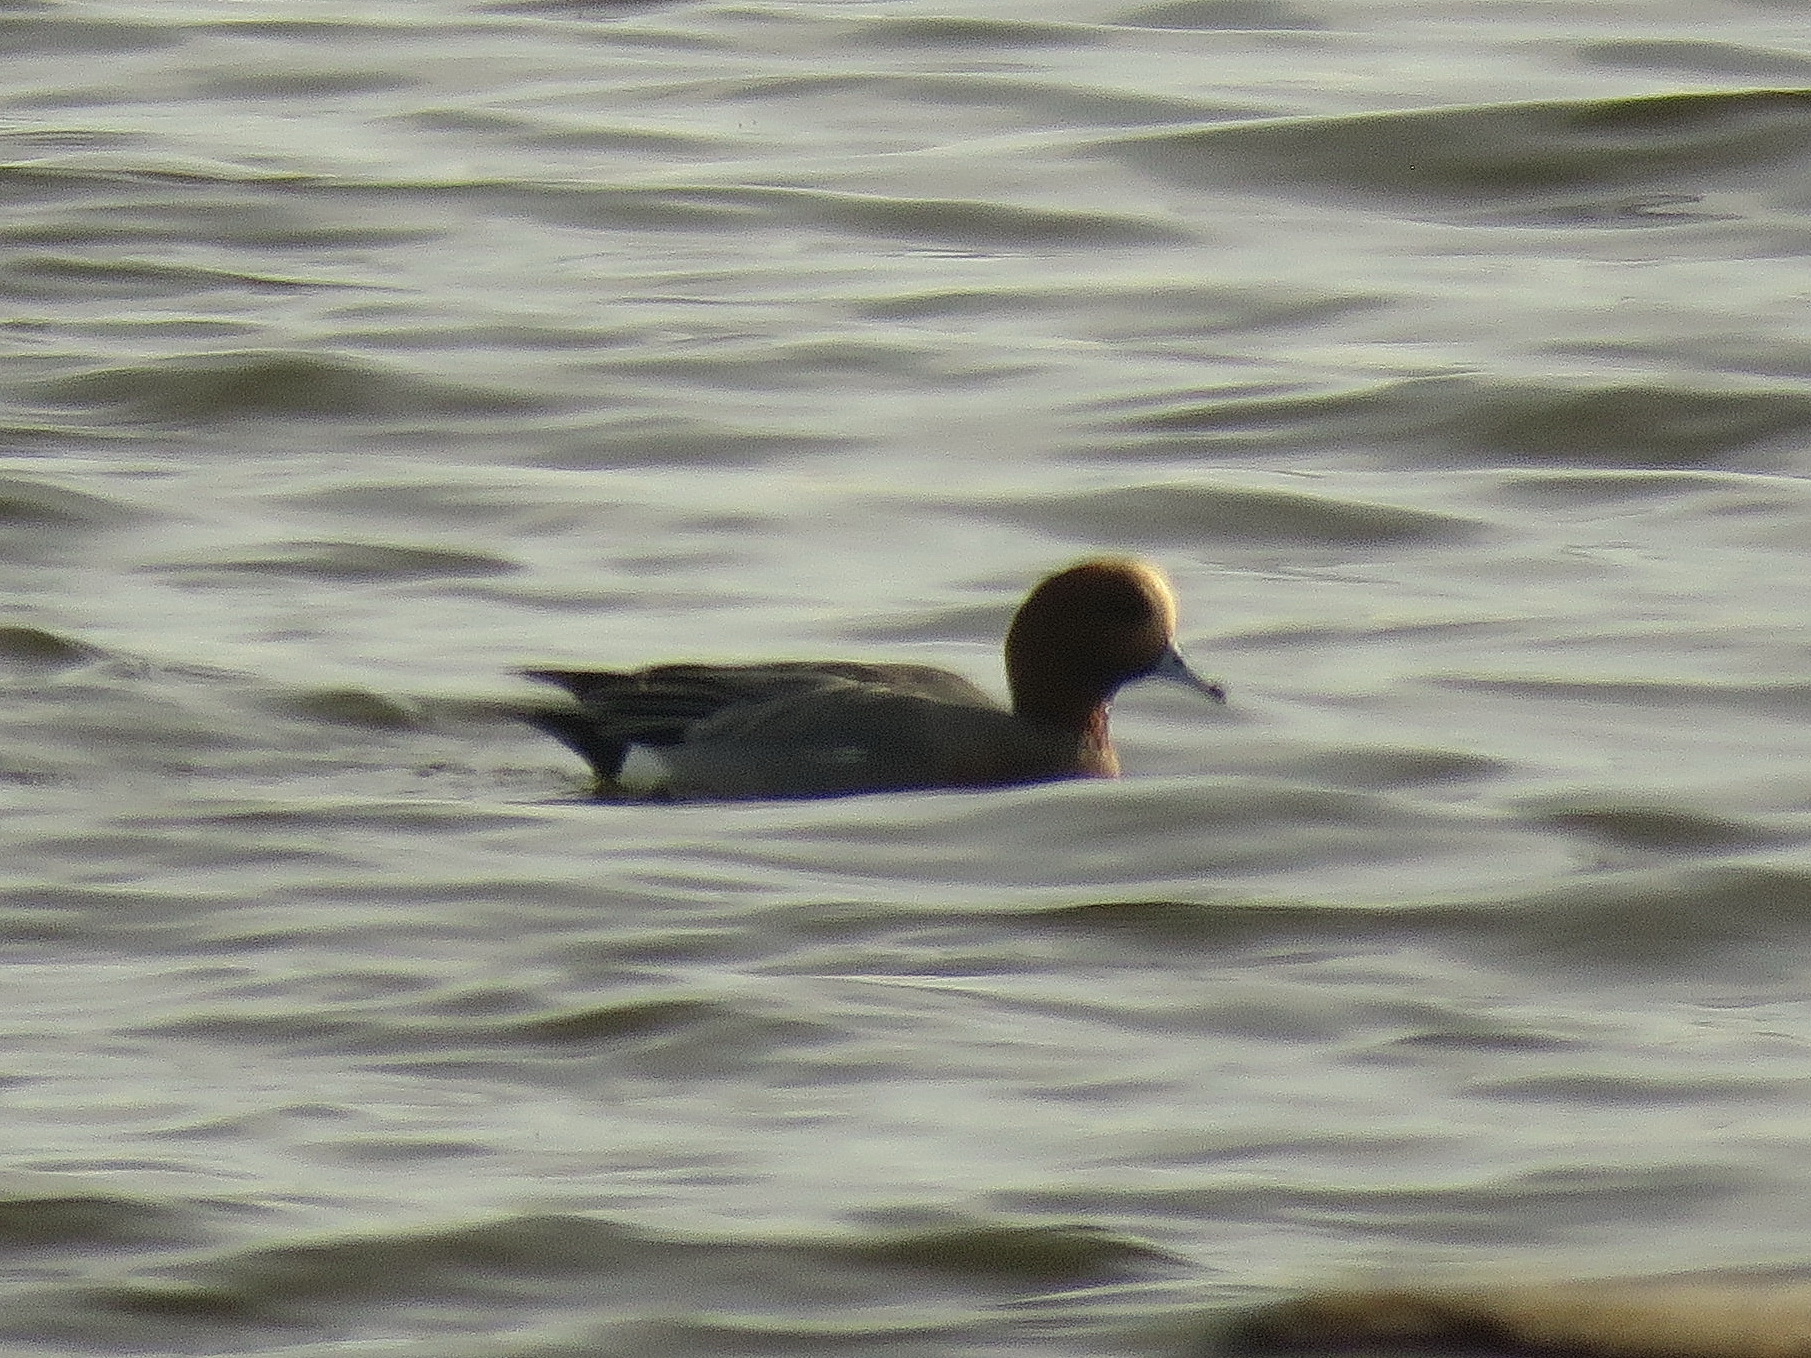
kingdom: Animalia
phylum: Chordata
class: Aves
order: Anseriformes
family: Anatidae
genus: Mareca
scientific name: Mareca penelope
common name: Eurasian wigeon
